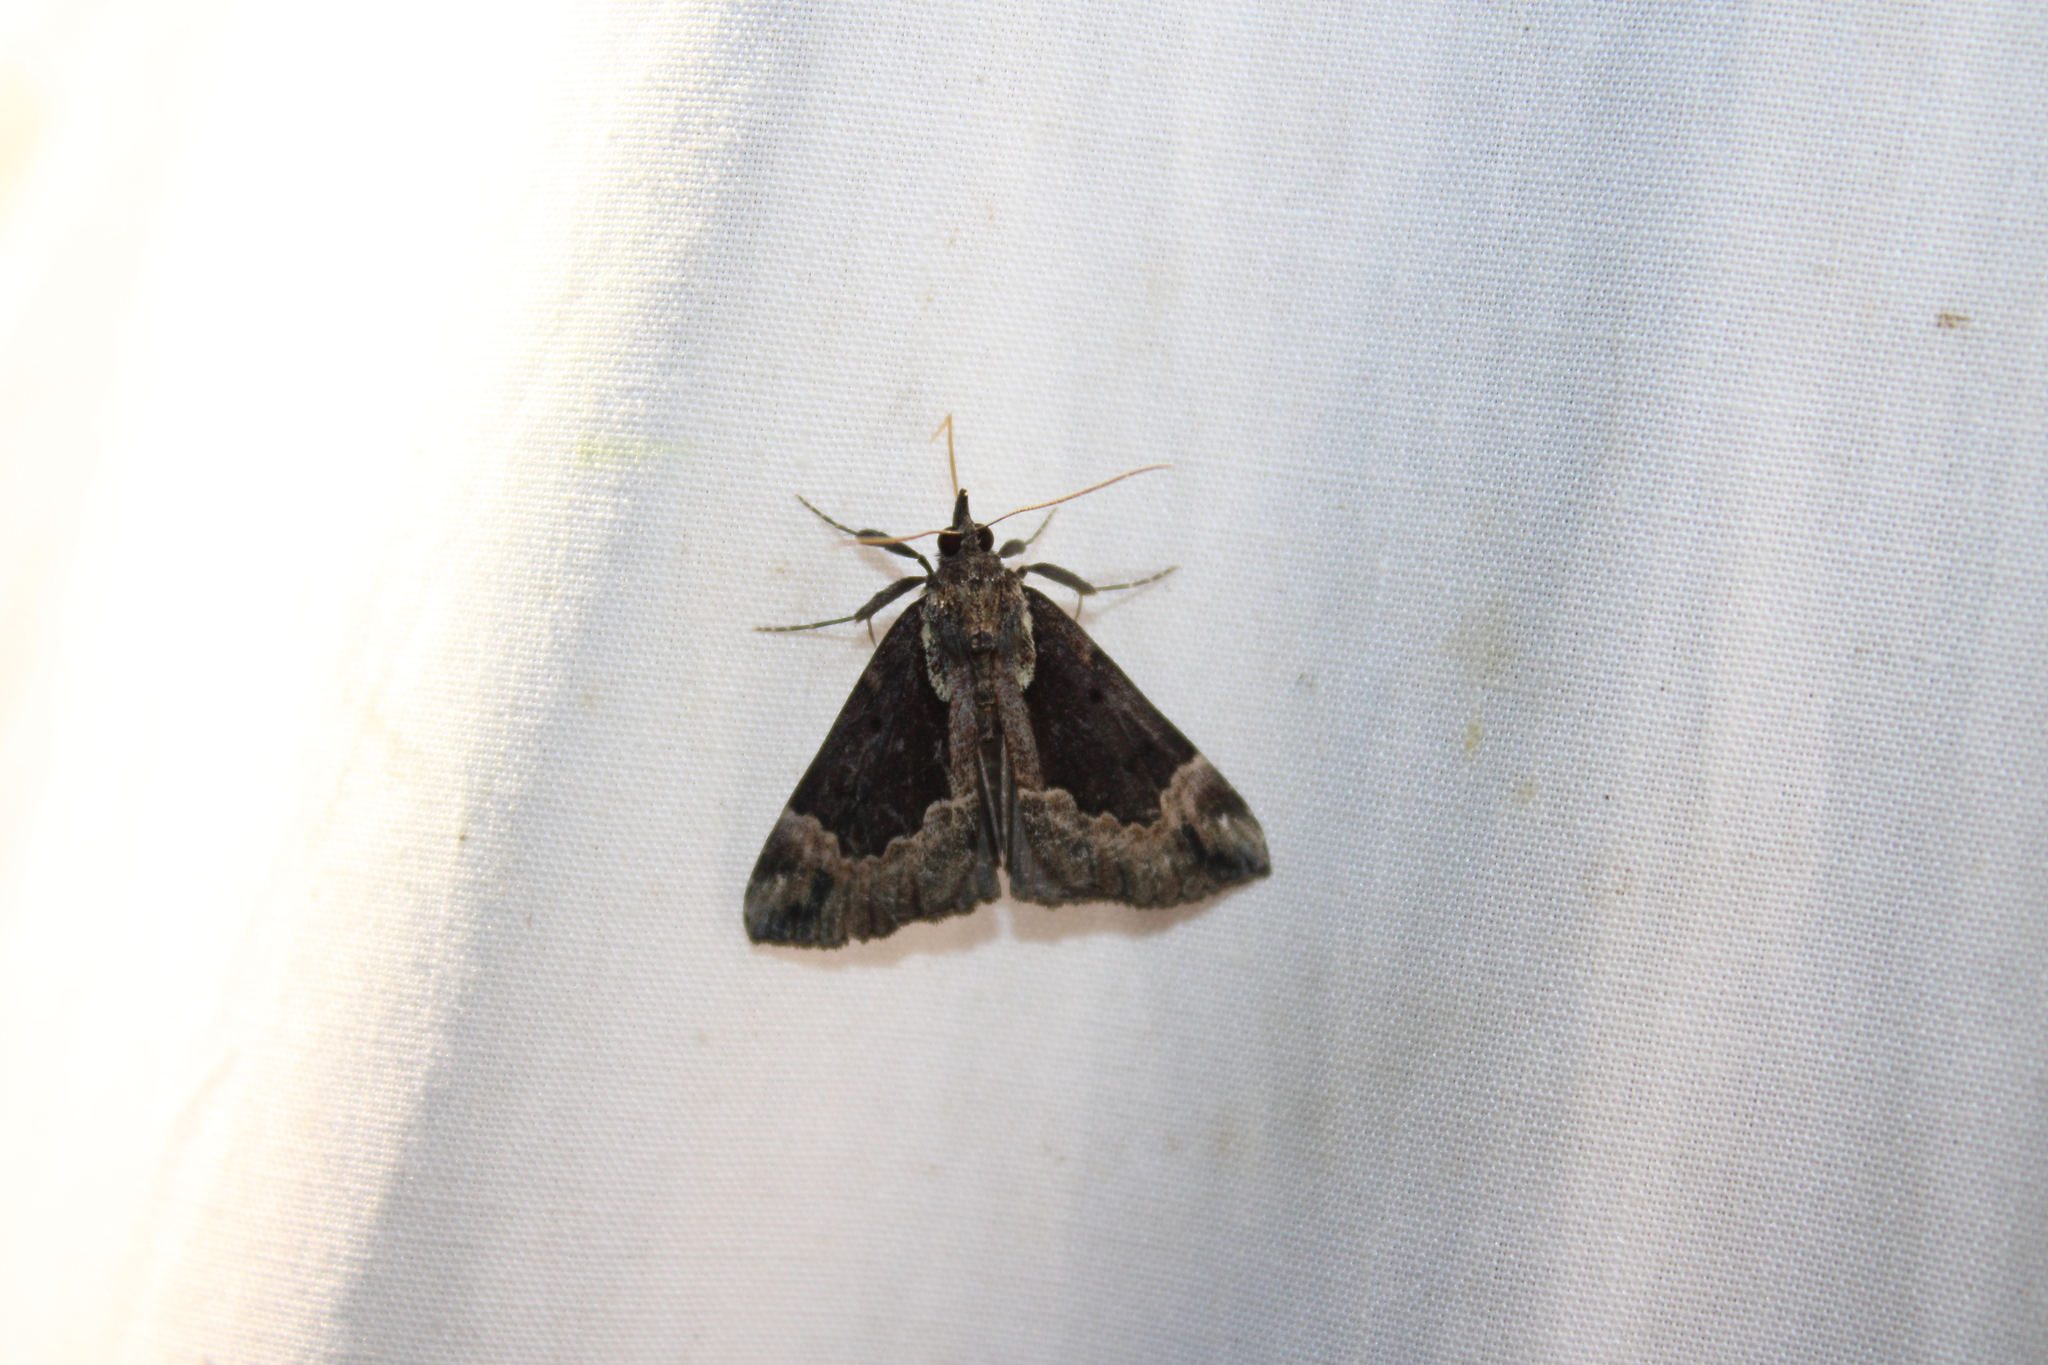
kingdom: Animalia
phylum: Arthropoda
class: Insecta
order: Lepidoptera
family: Erebidae
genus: Hypena
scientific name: Hypena baltimoralis
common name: Baltimore snout
